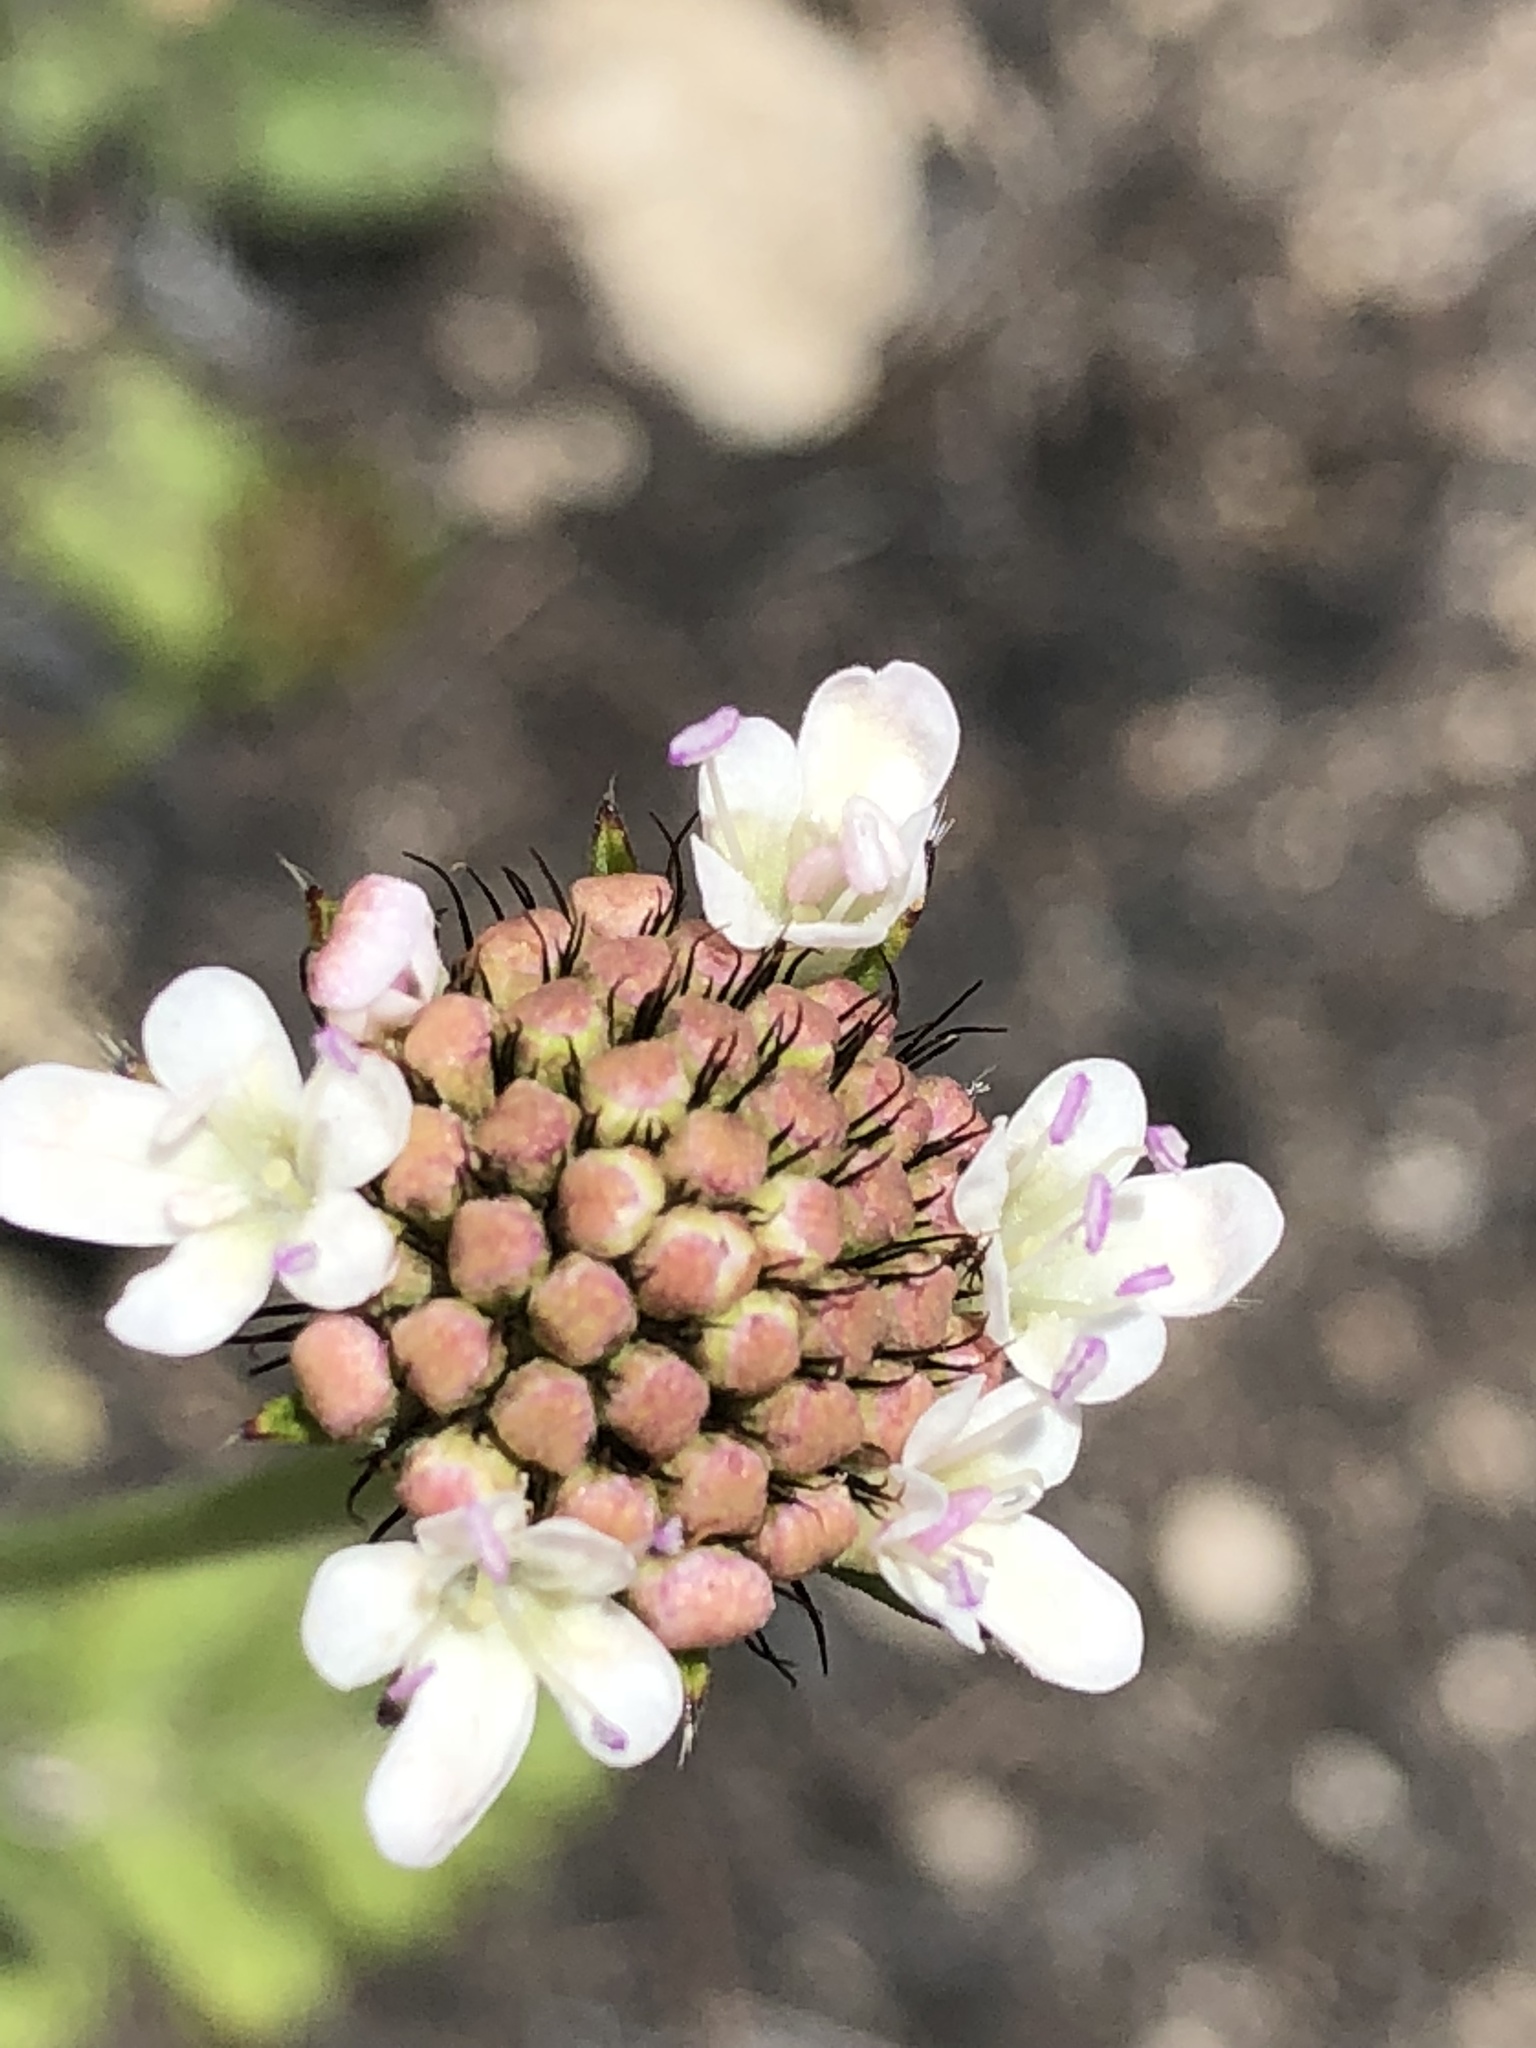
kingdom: Plantae
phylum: Tracheophyta
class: Magnoliopsida
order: Dipsacales
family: Caprifoliaceae
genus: Scabiosa
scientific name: Scabiosa columbaria
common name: Small scabious
